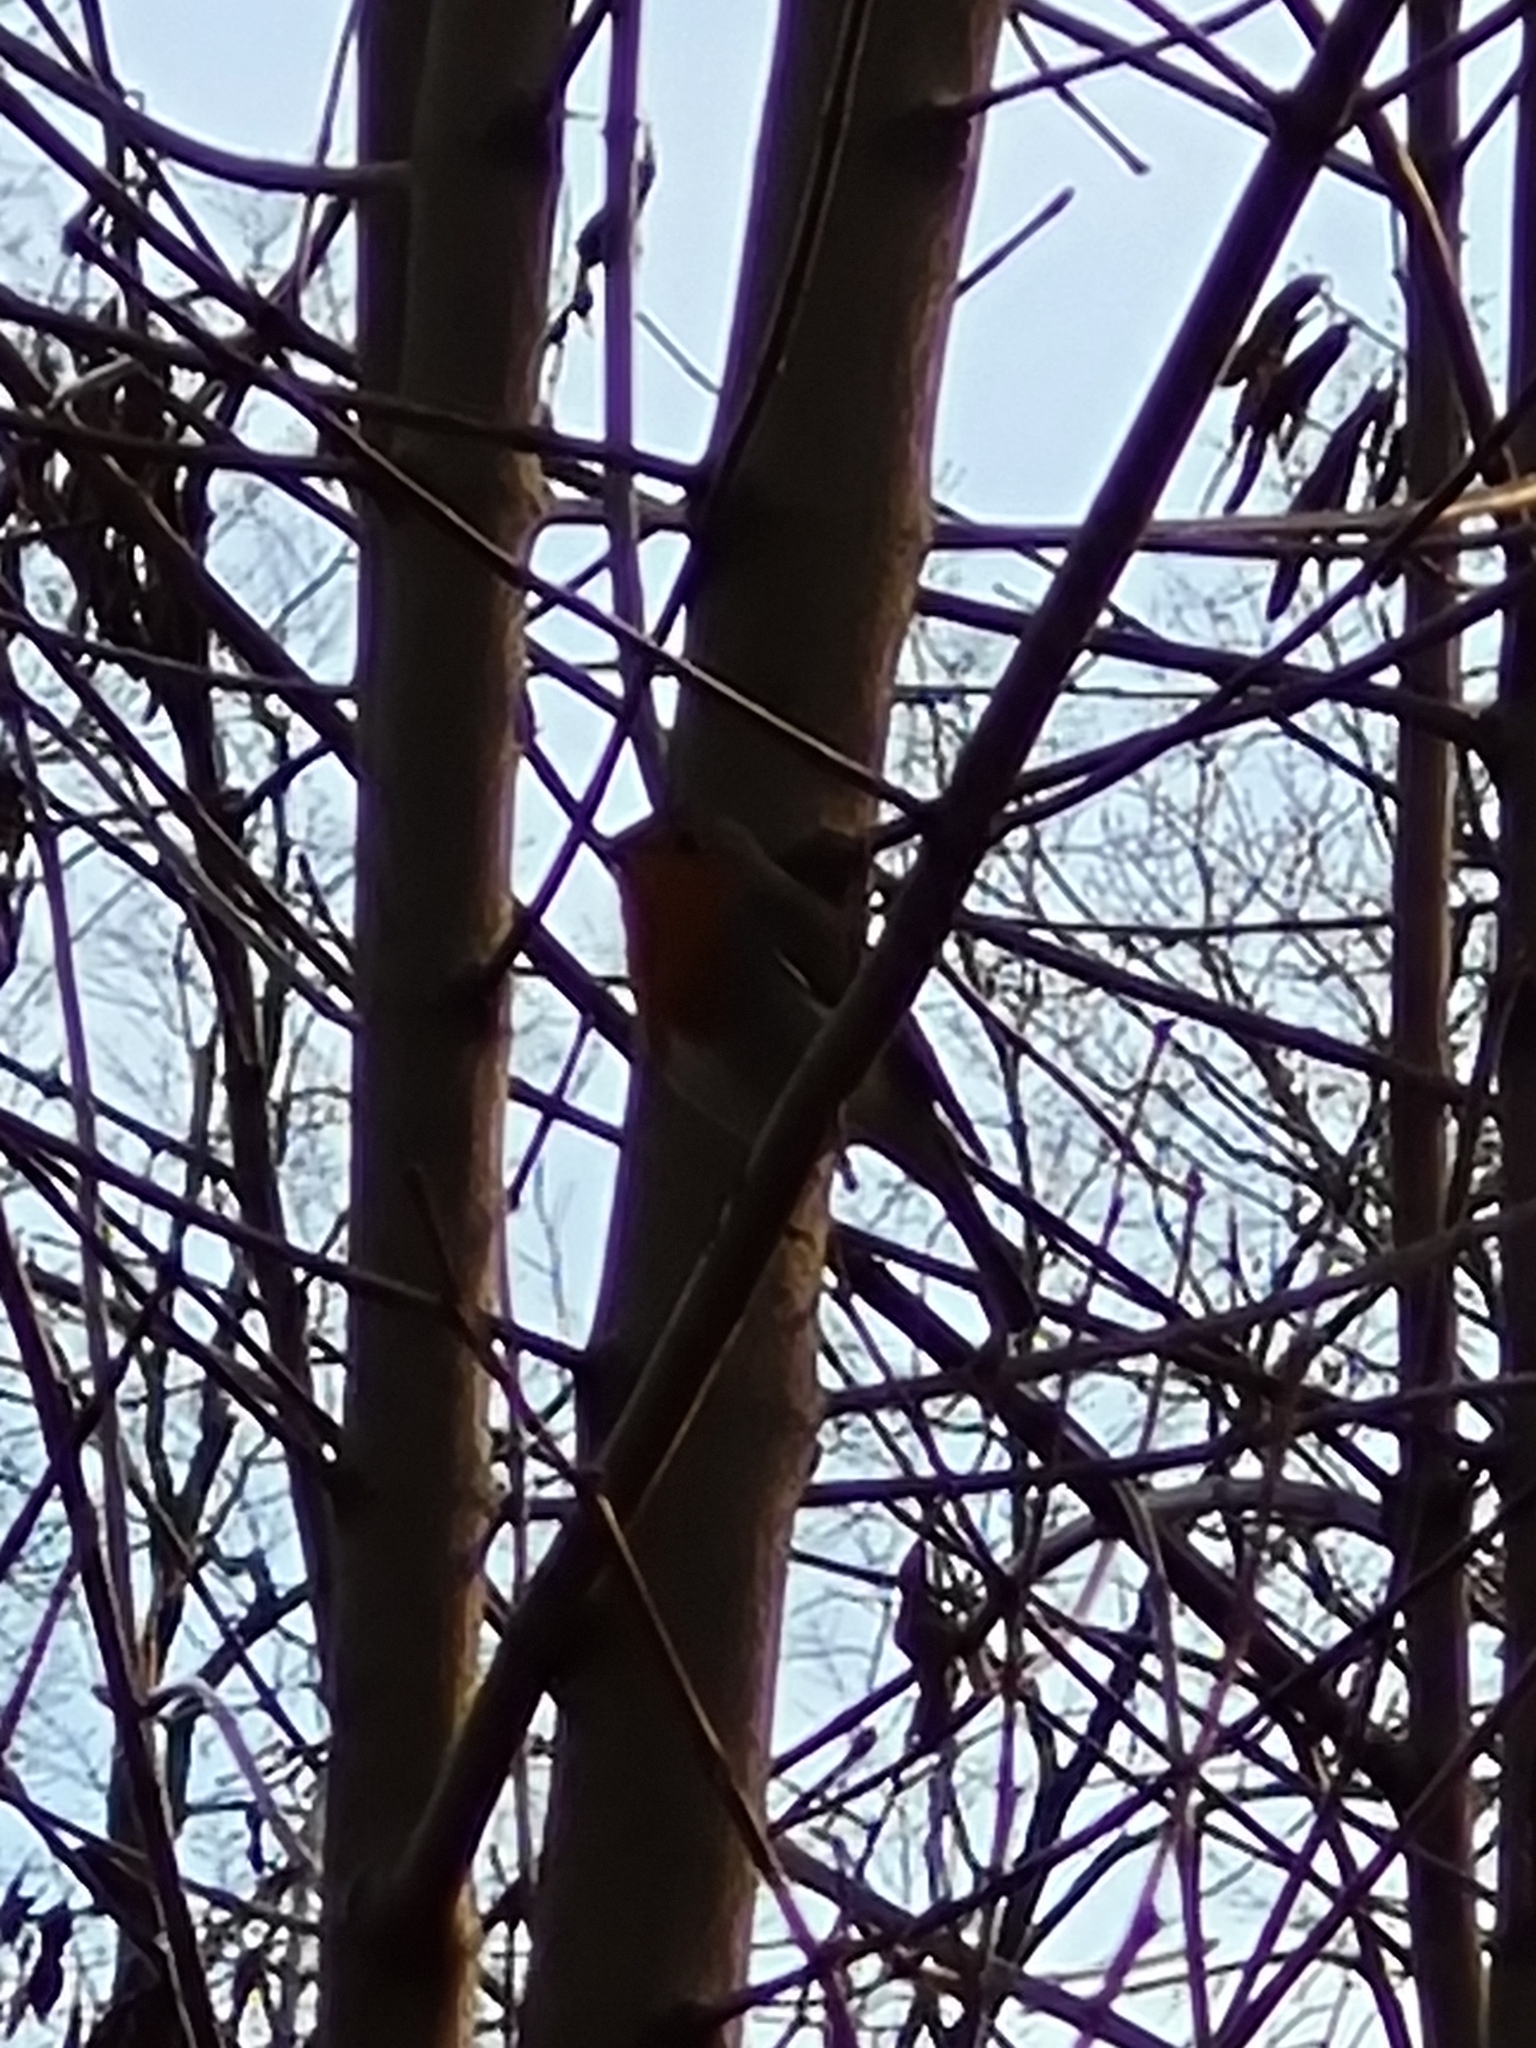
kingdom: Animalia
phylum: Chordata
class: Aves
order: Passeriformes
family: Muscicapidae
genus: Erithacus
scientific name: Erithacus rubecula
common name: European robin
